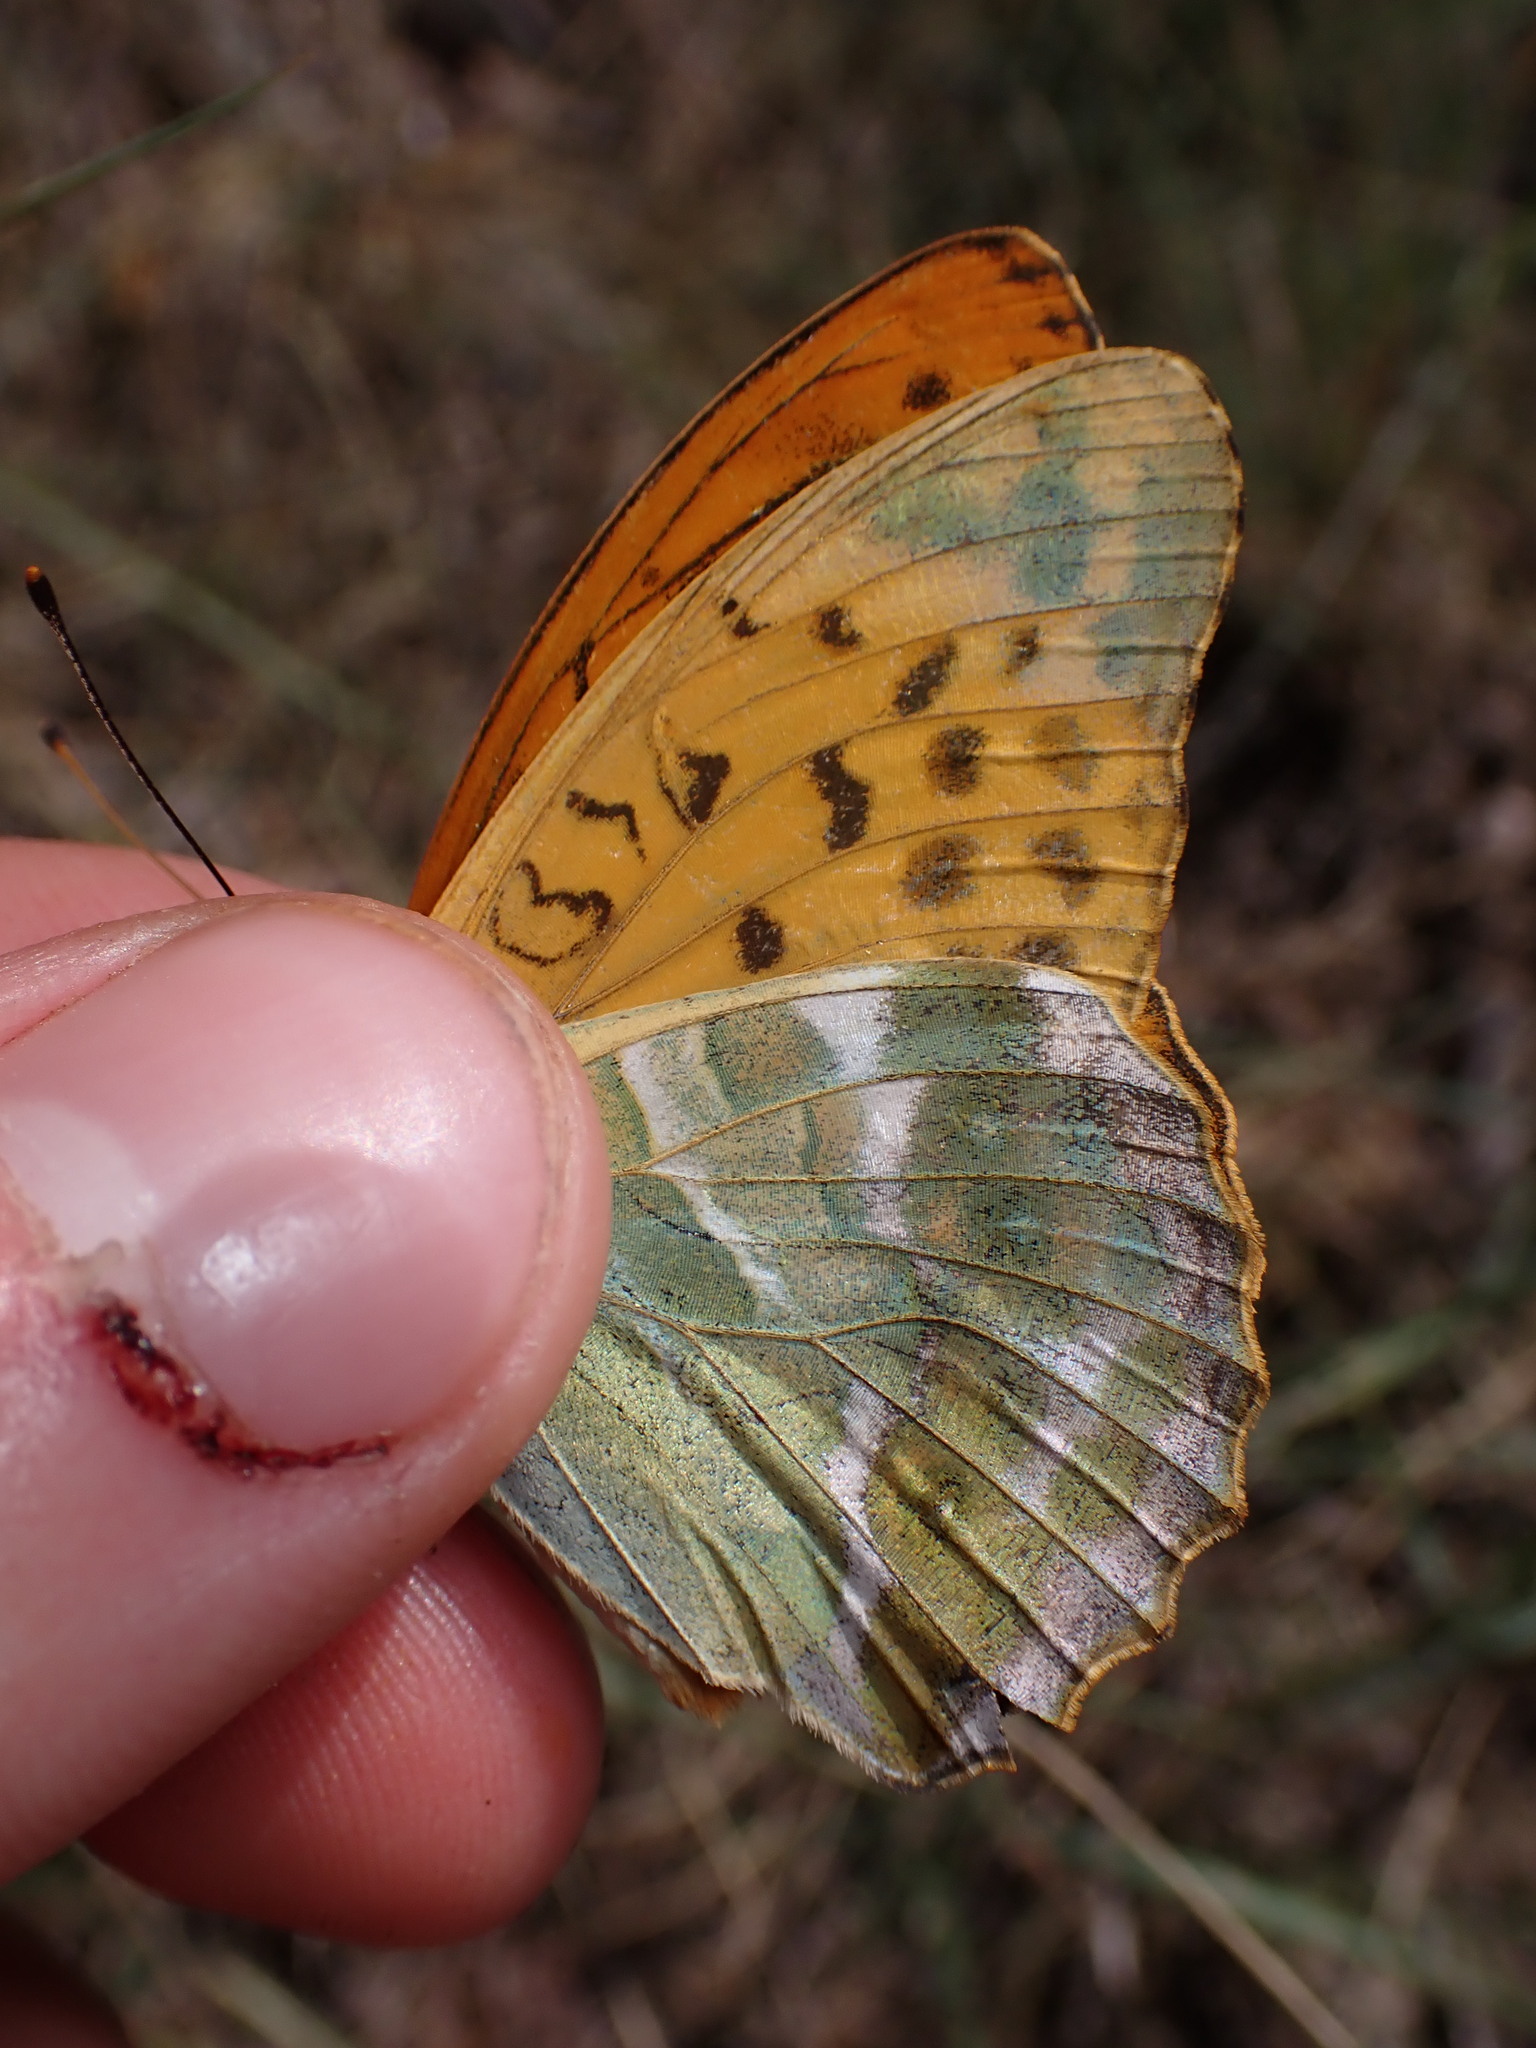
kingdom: Animalia
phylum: Arthropoda
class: Insecta
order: Lepidoptera
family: Nymphalidae
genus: Argynnis
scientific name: Argynnis paphia
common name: Silver-washed fritillary
